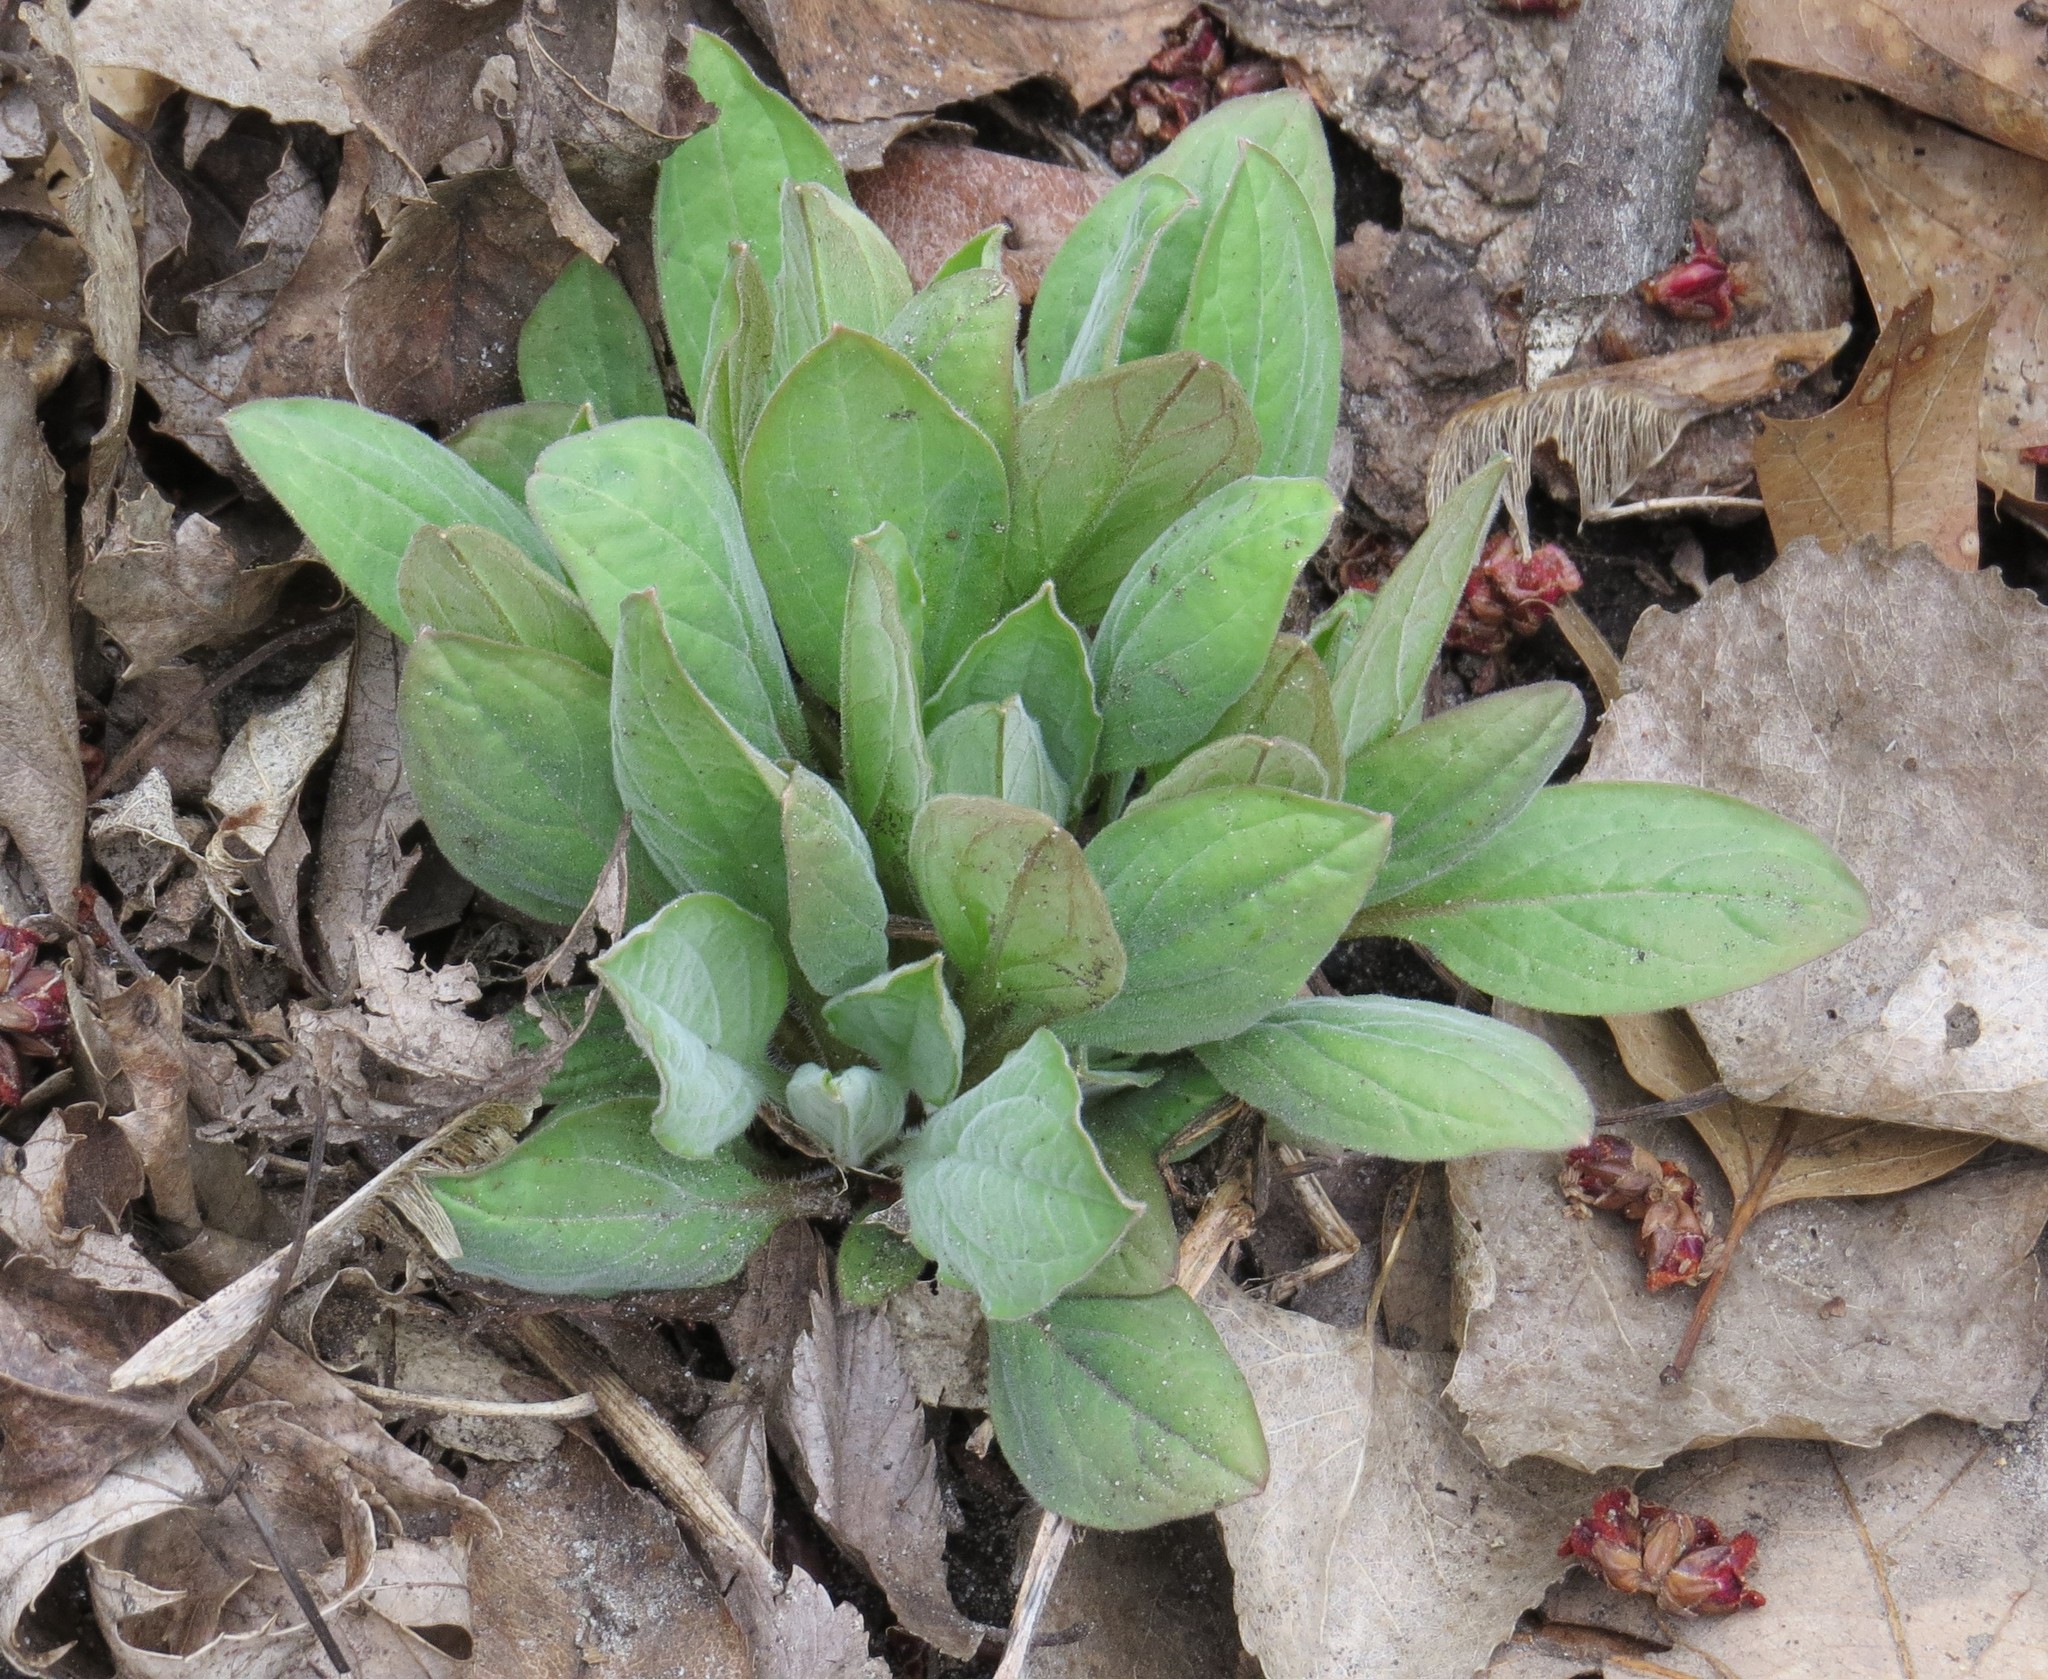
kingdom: Plantae
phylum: Tracheophyta
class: Magnoliopsida
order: Boraginales
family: Boraginaceae
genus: Mertensia
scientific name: Mertensia virginica
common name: Virginia bluebells
